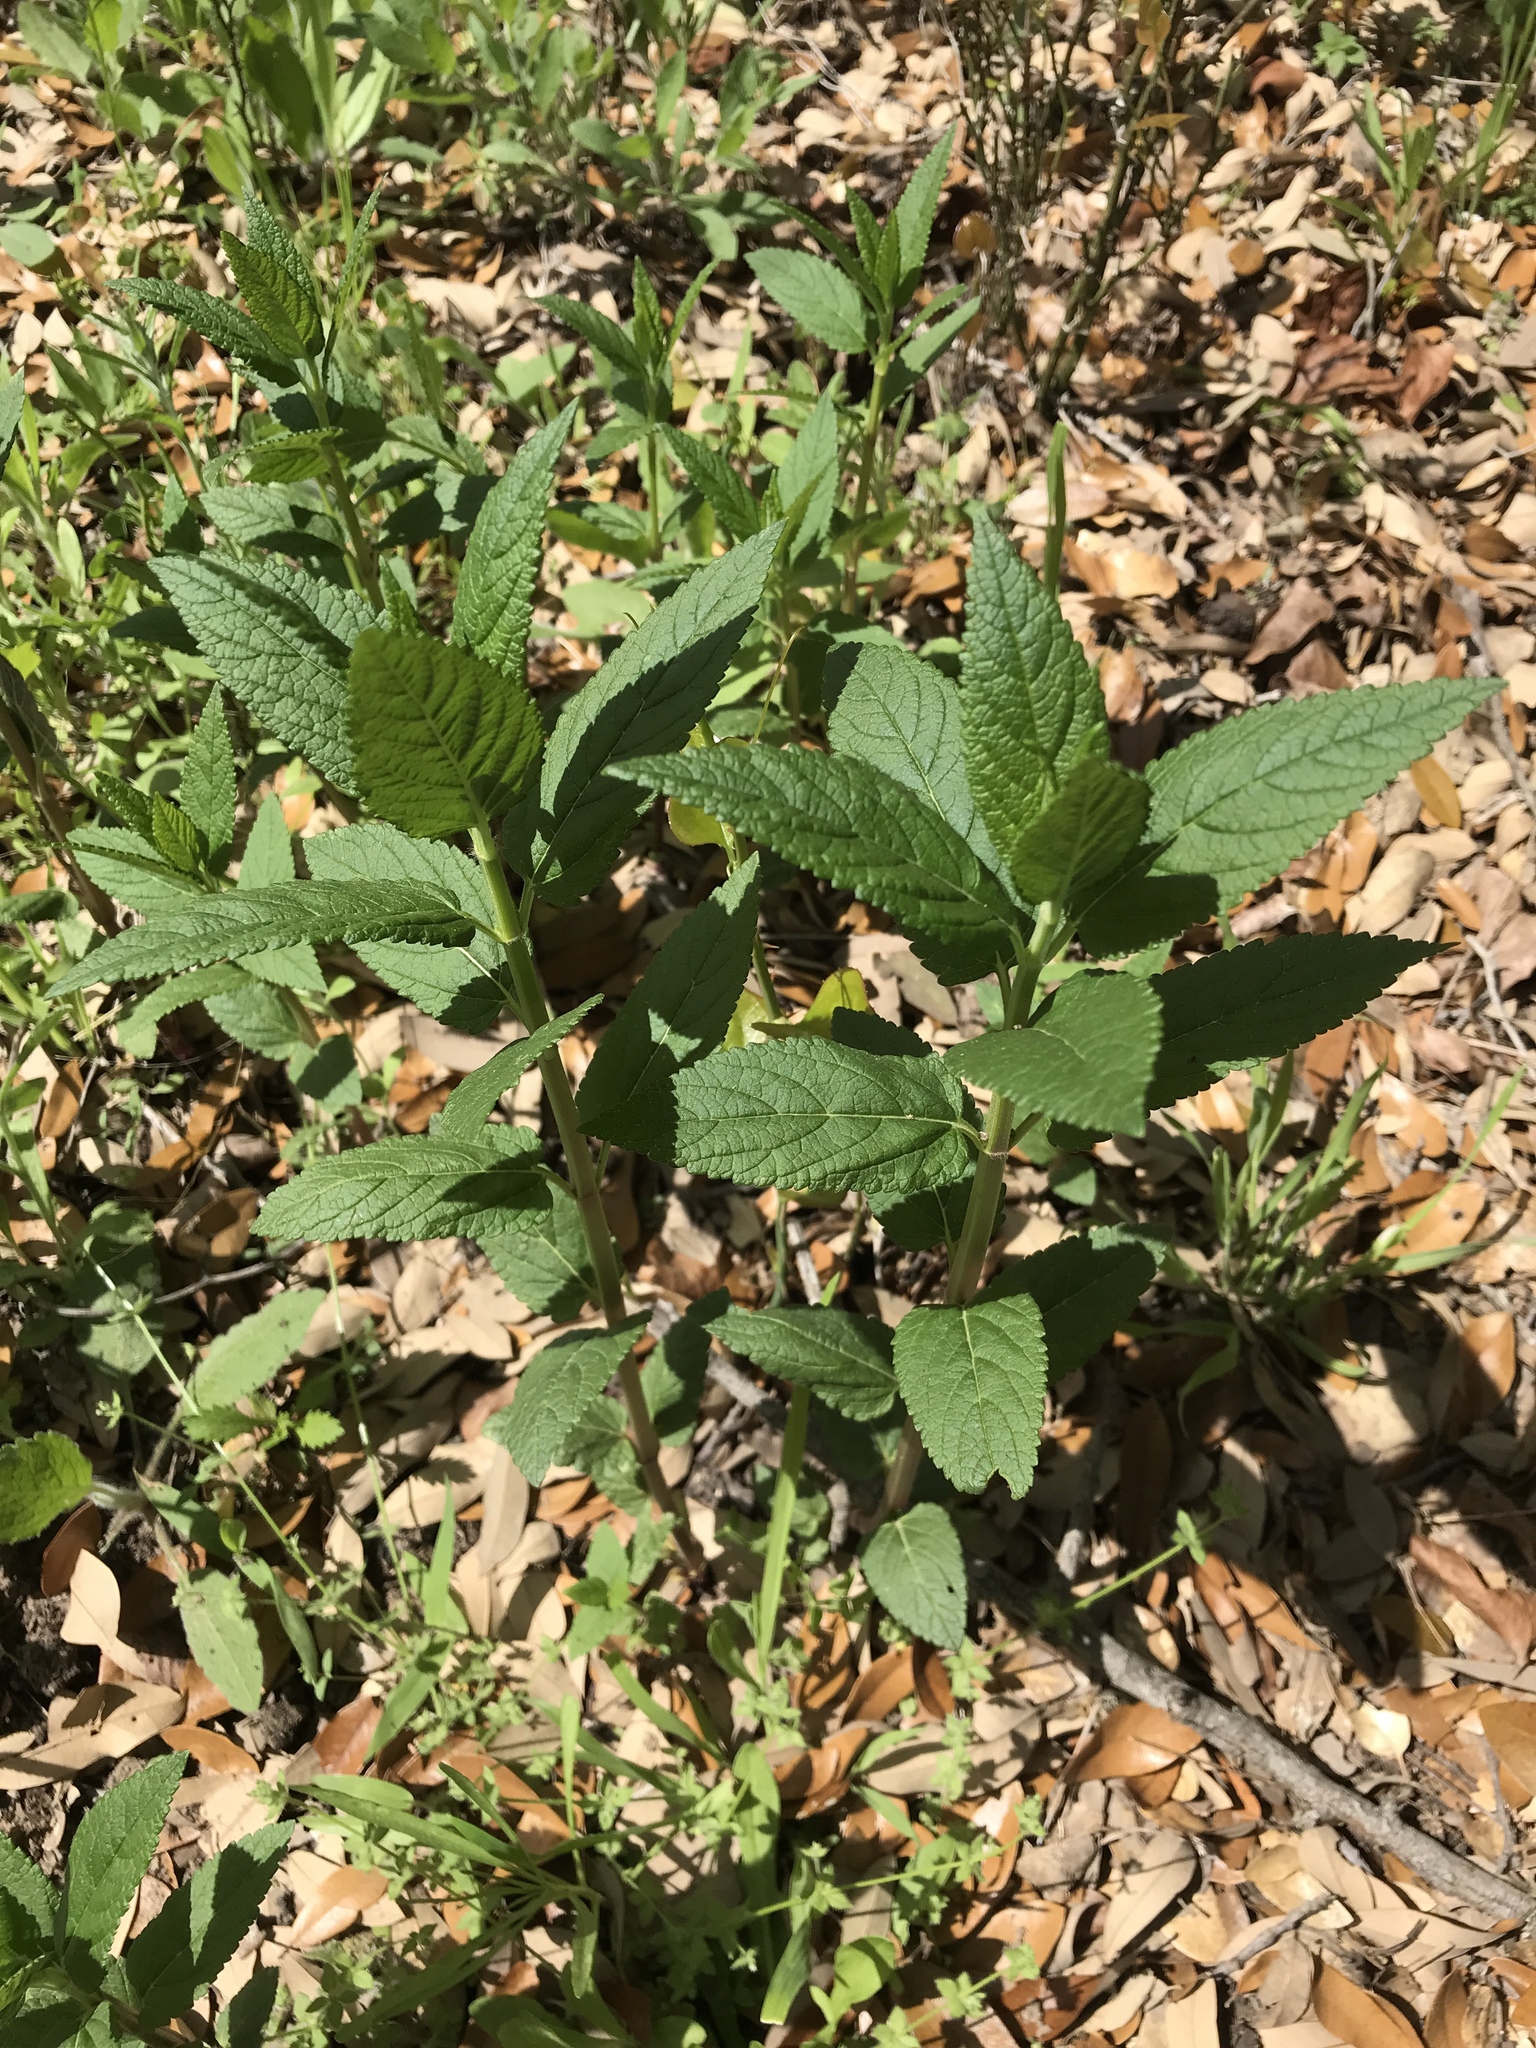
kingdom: Plantae
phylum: Tracheophyta
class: Magnoliopsida
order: Lamiales
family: Lamiaceae
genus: Teucrium
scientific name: Teucrium canadense
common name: American germander
